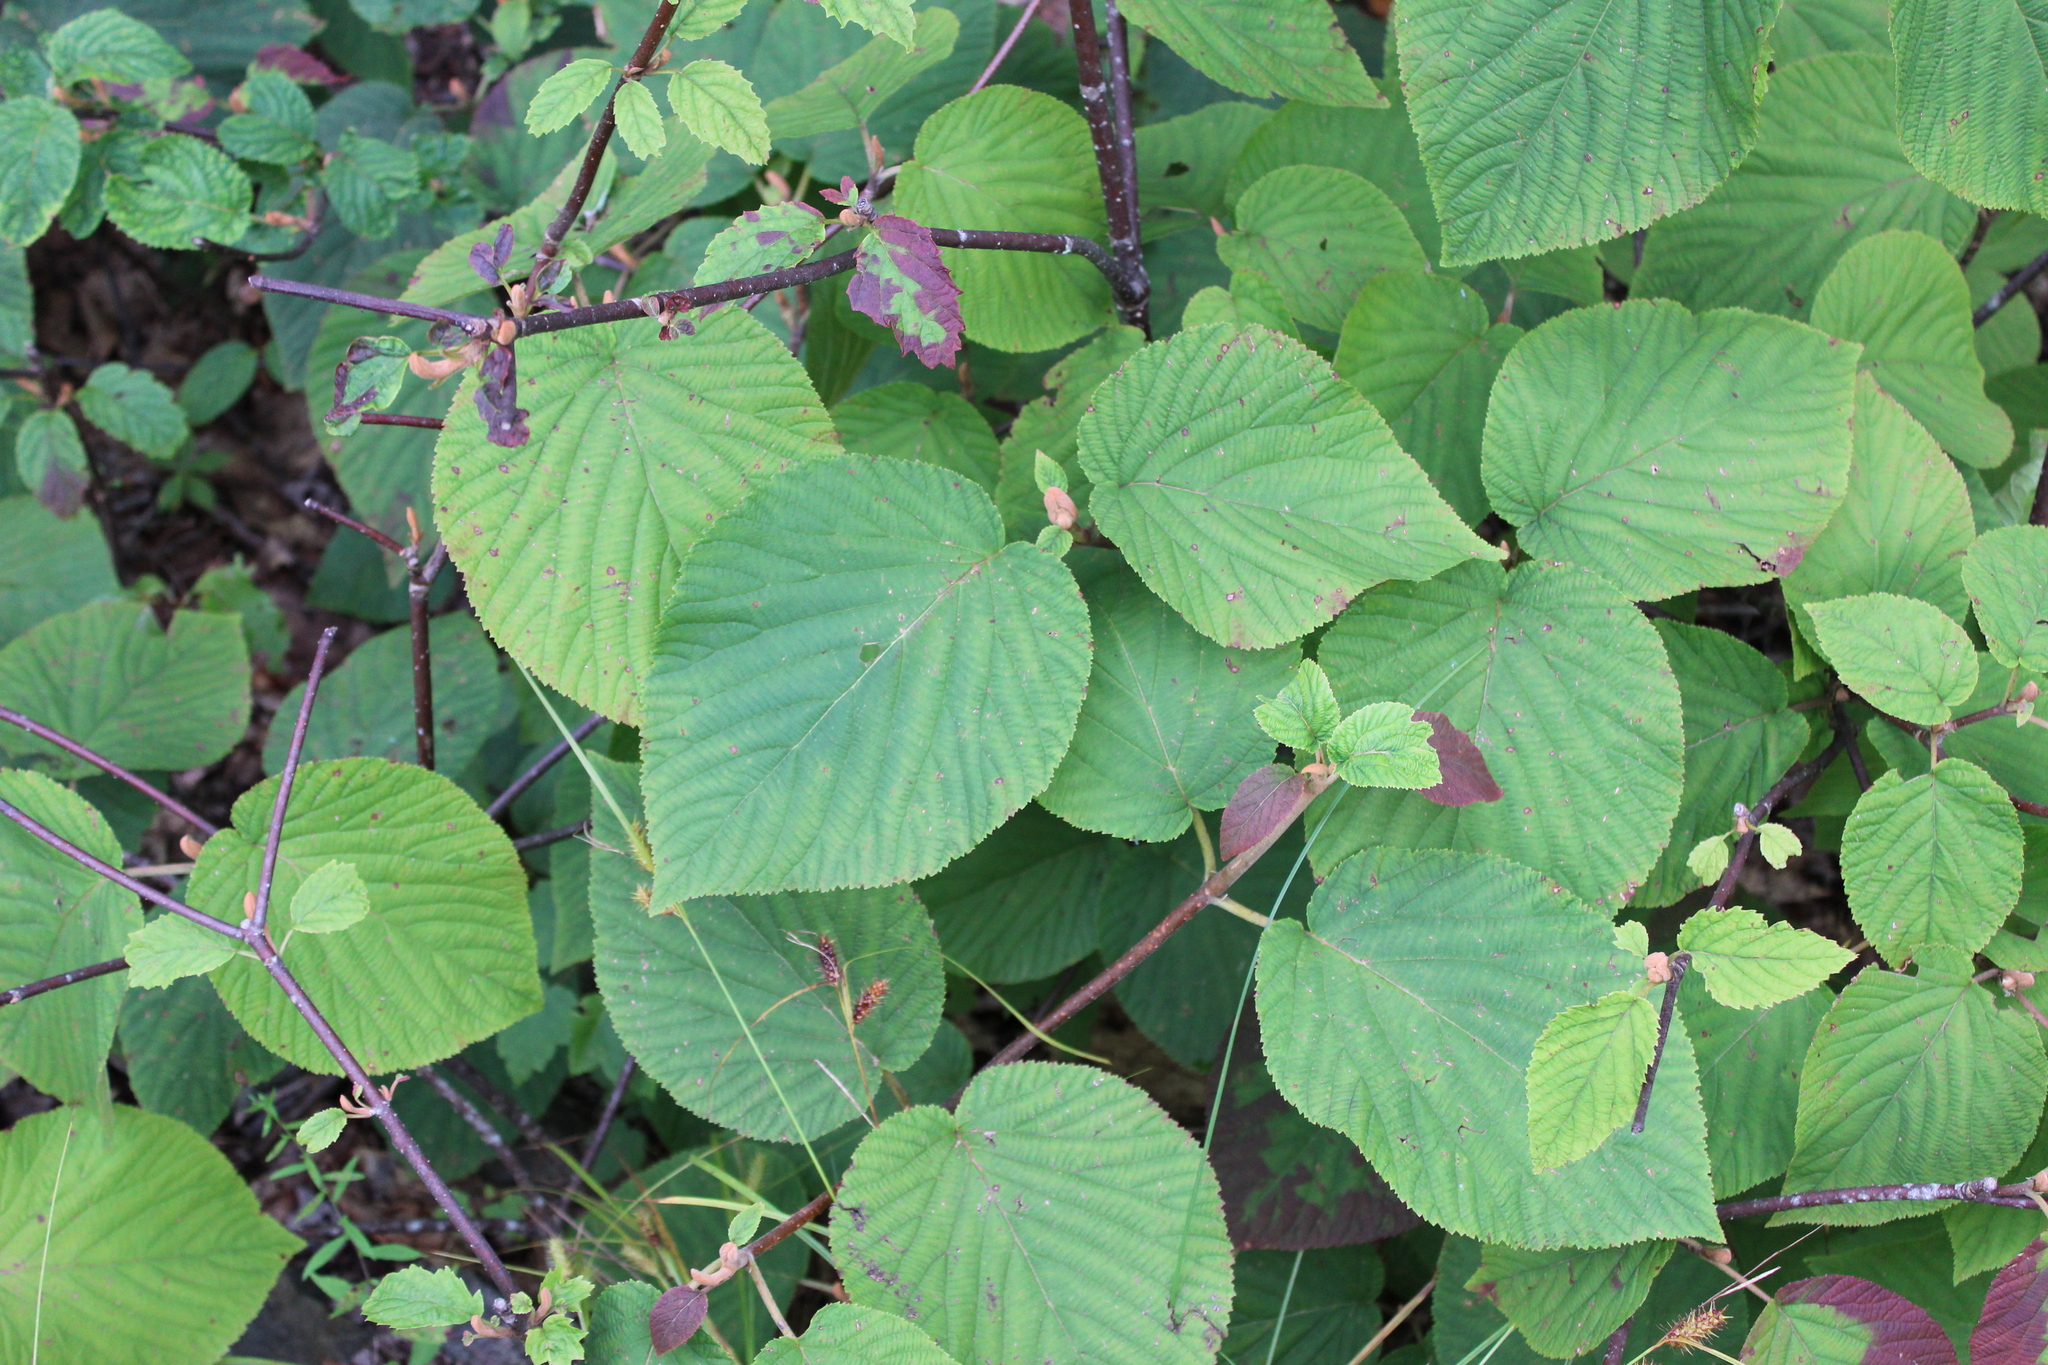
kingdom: Plantae
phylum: Tracheophyta
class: Magnoliopsida
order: Dipsacales
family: Viburnaceae
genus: Viburnum
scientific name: Viburnum lantanoides
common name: Hobblebush
